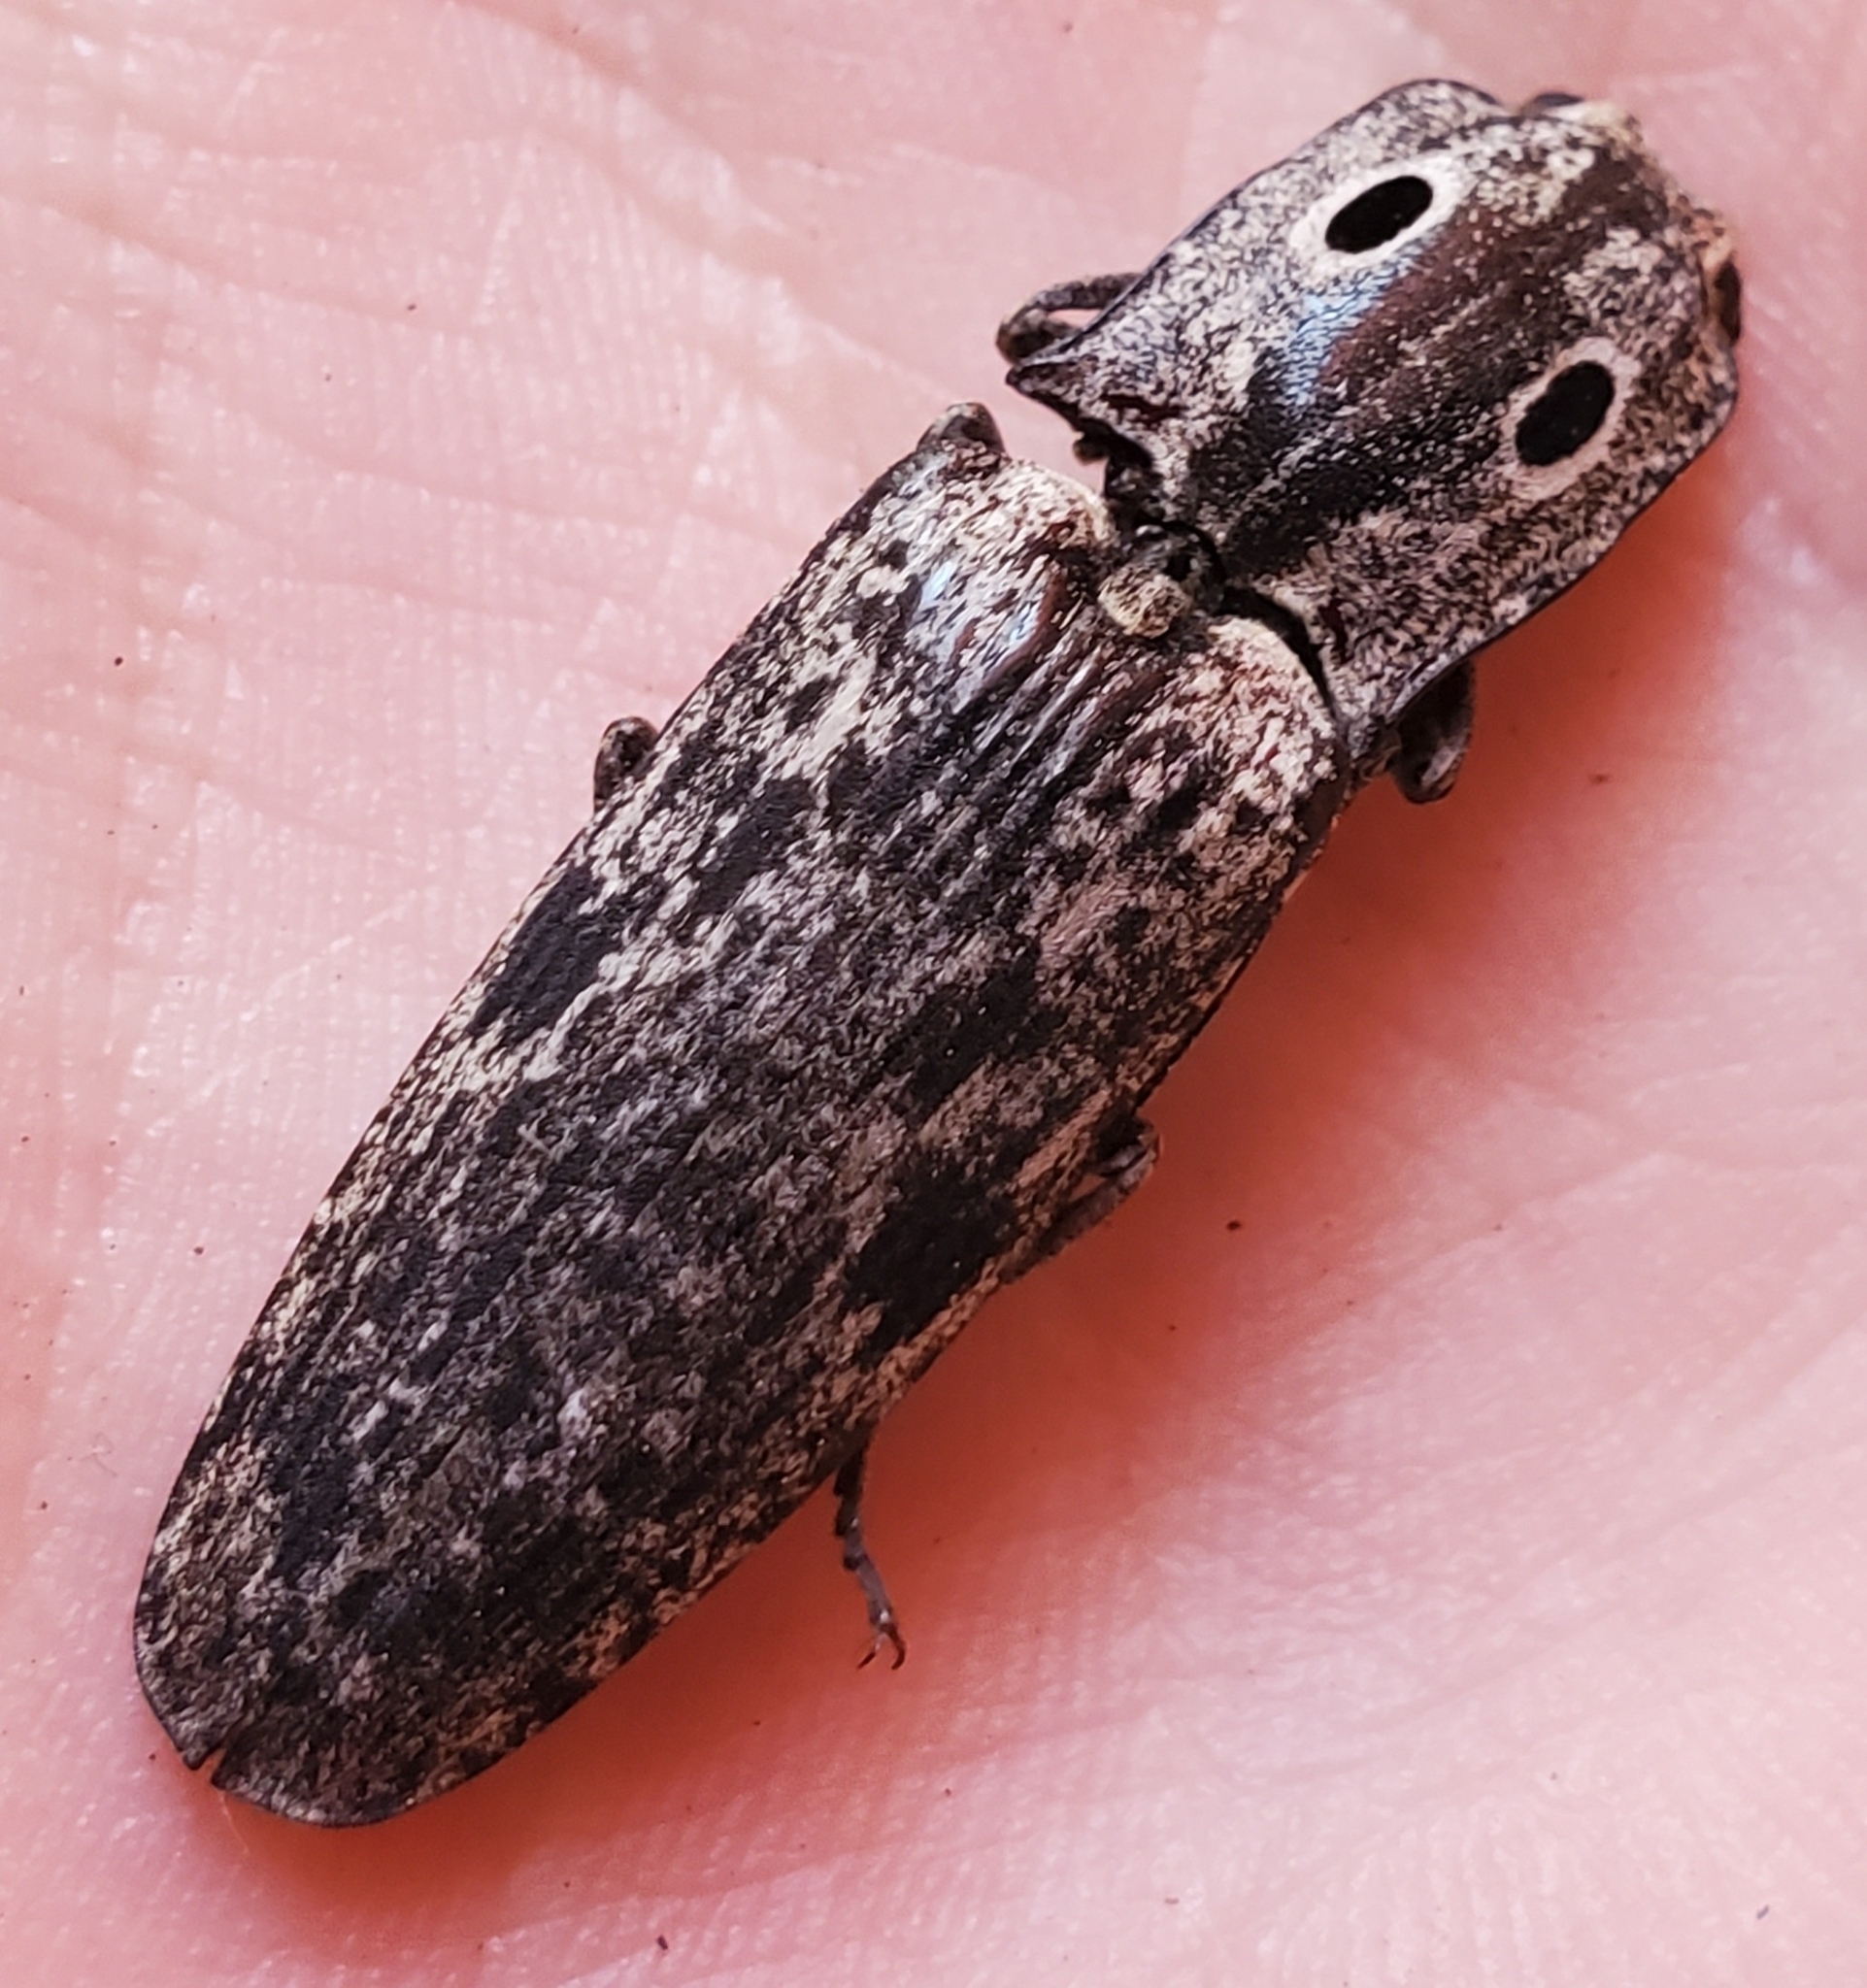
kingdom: Animalia
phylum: Arthropoda
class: Insecta
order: Coleoptera
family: Elateridae
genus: Alaus
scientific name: Alaus myops
